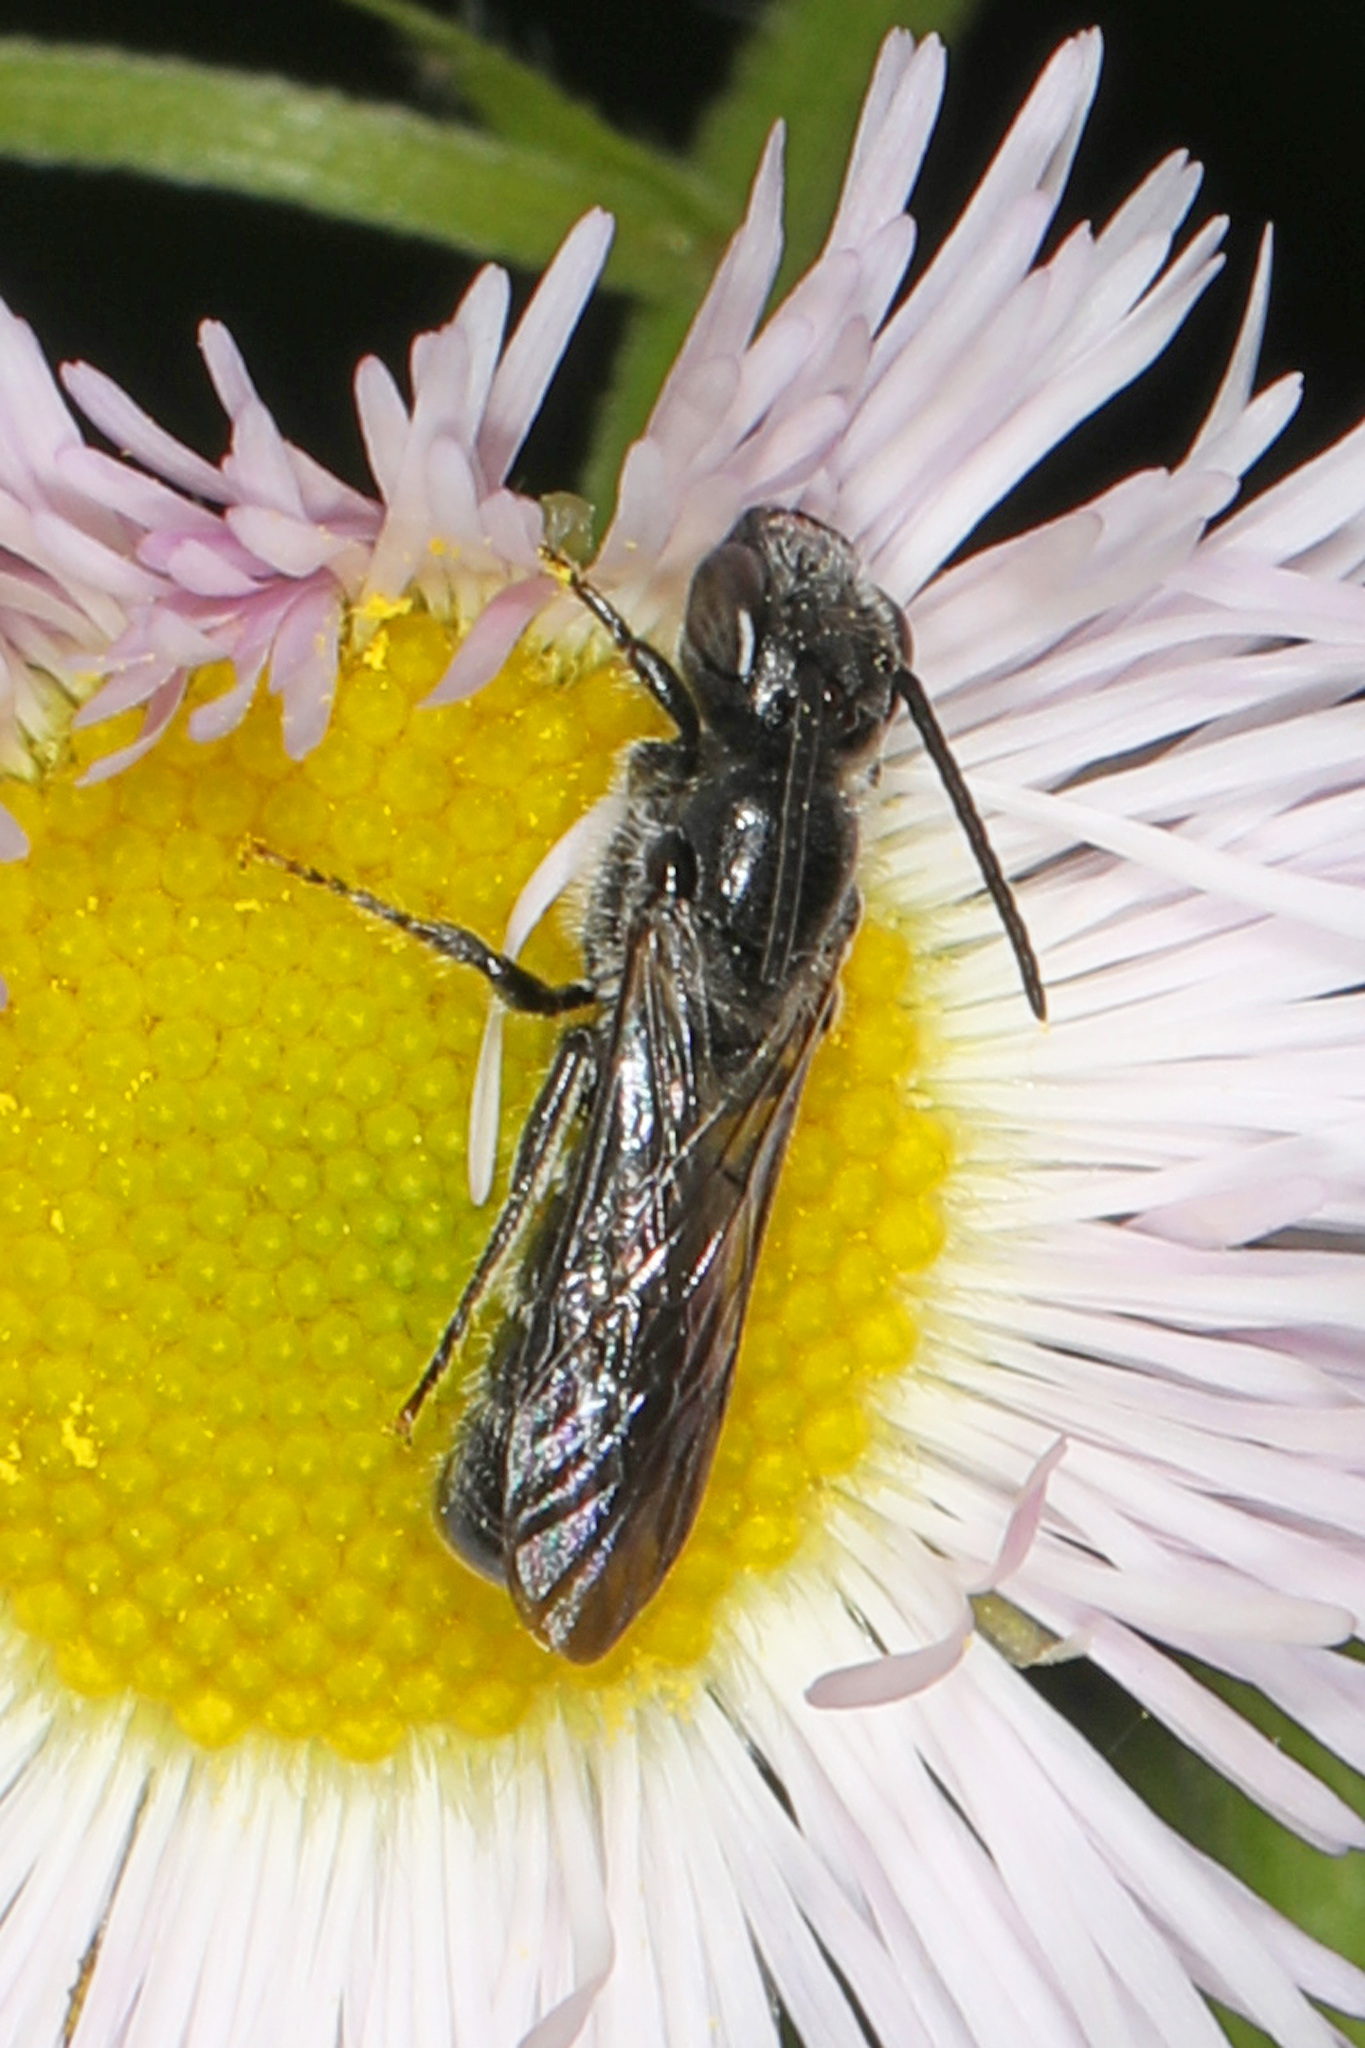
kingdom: Animalia
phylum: Arthropoda
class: Insecta
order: Hymenoptera
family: Megachilidae
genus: Chelostoma
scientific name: Chelostoma philadelphi
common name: Mock-orange scissor bee
